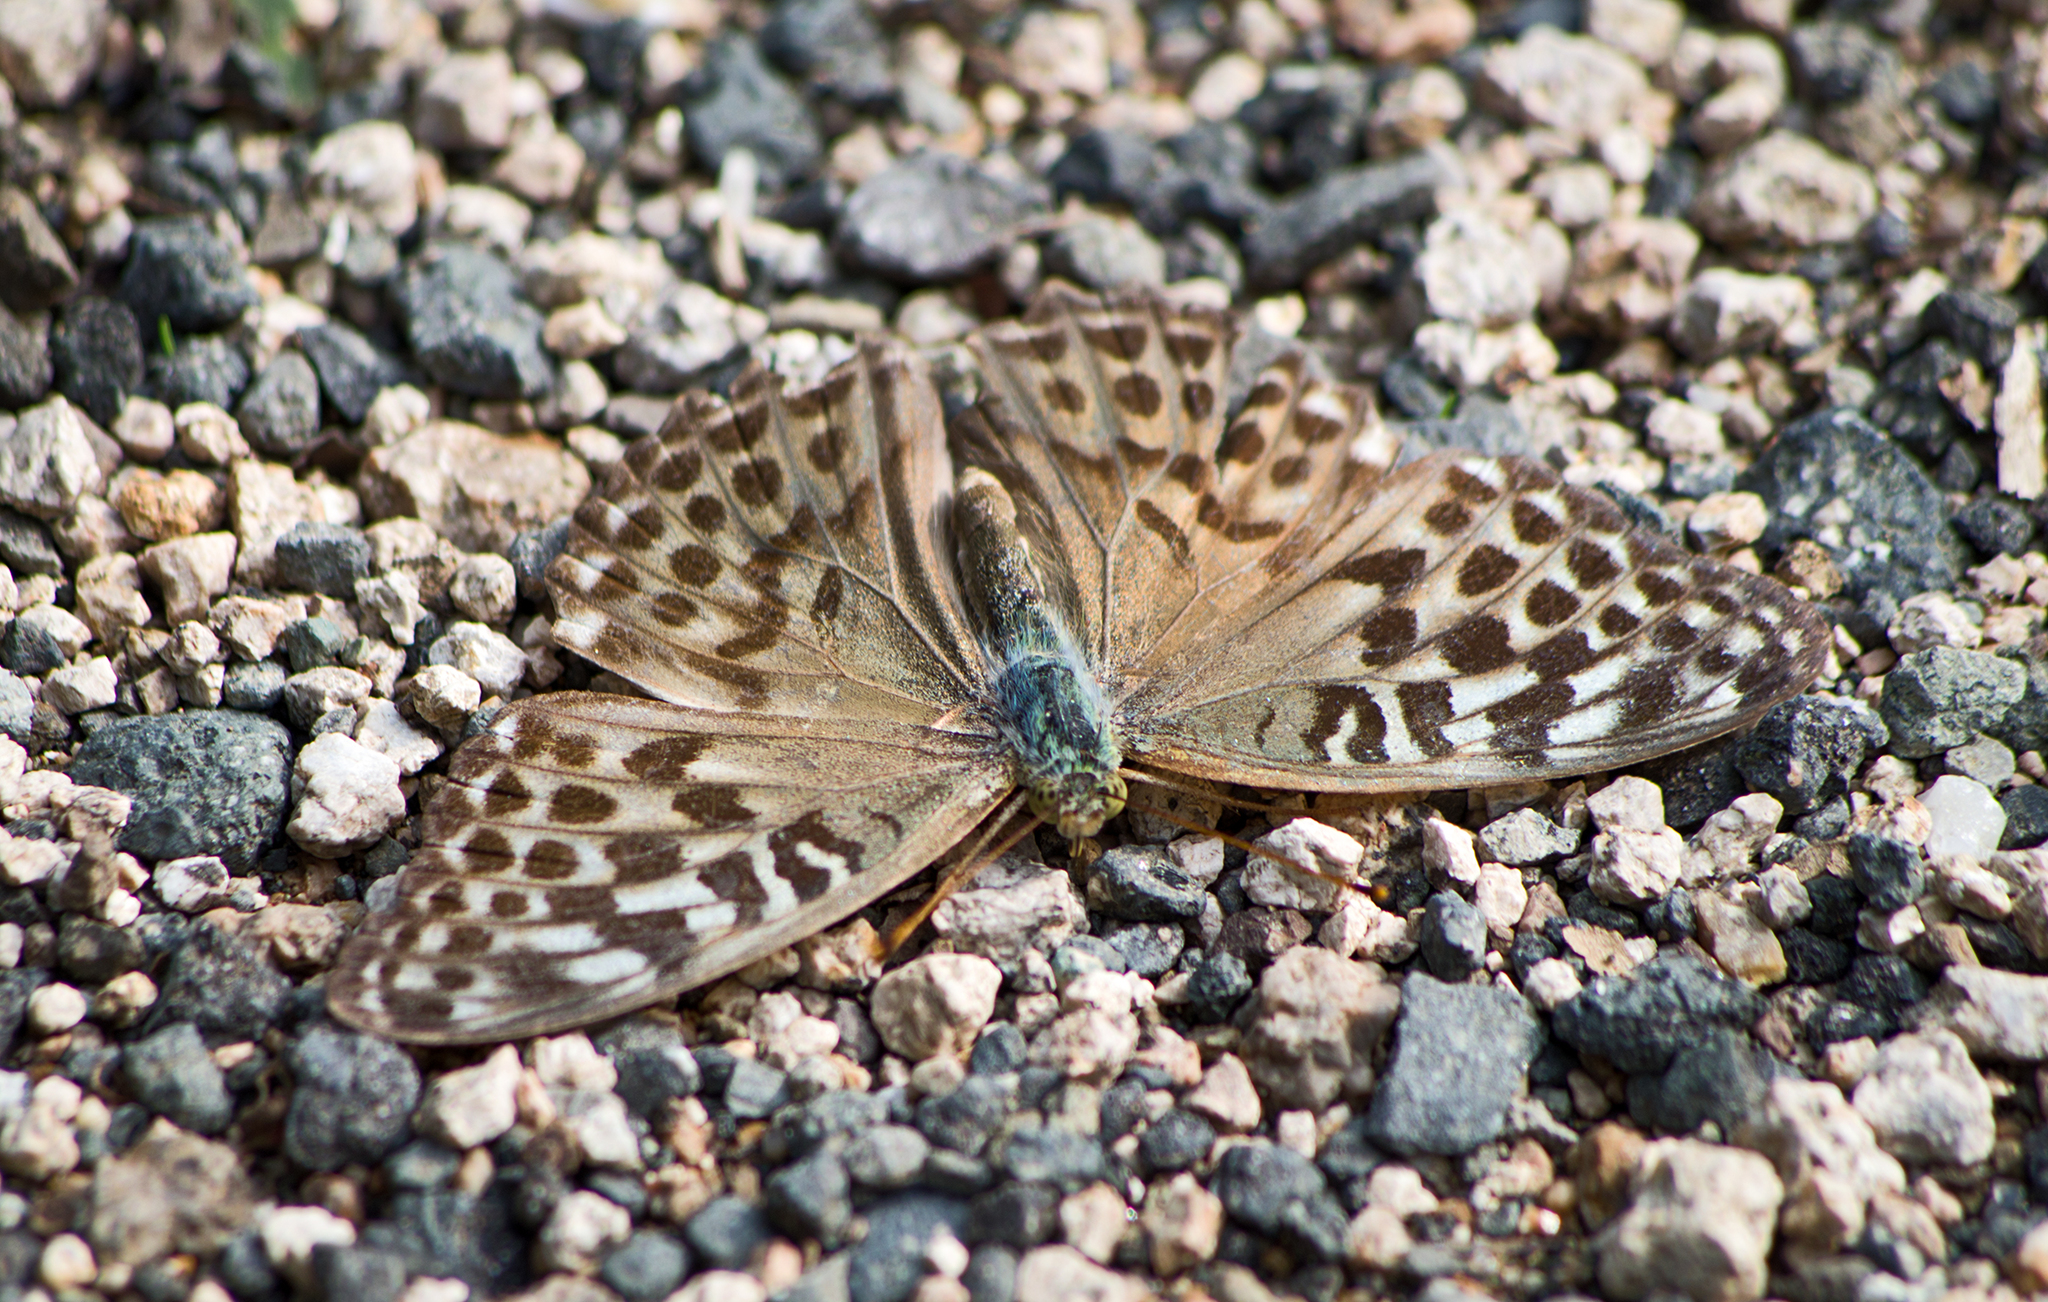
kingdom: Animalia
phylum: Arthropoda
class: Insecta
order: Lepidoptera
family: Nymphalidae
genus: Argynnis
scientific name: Argynnis paphia
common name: Silver-washed fritillary
